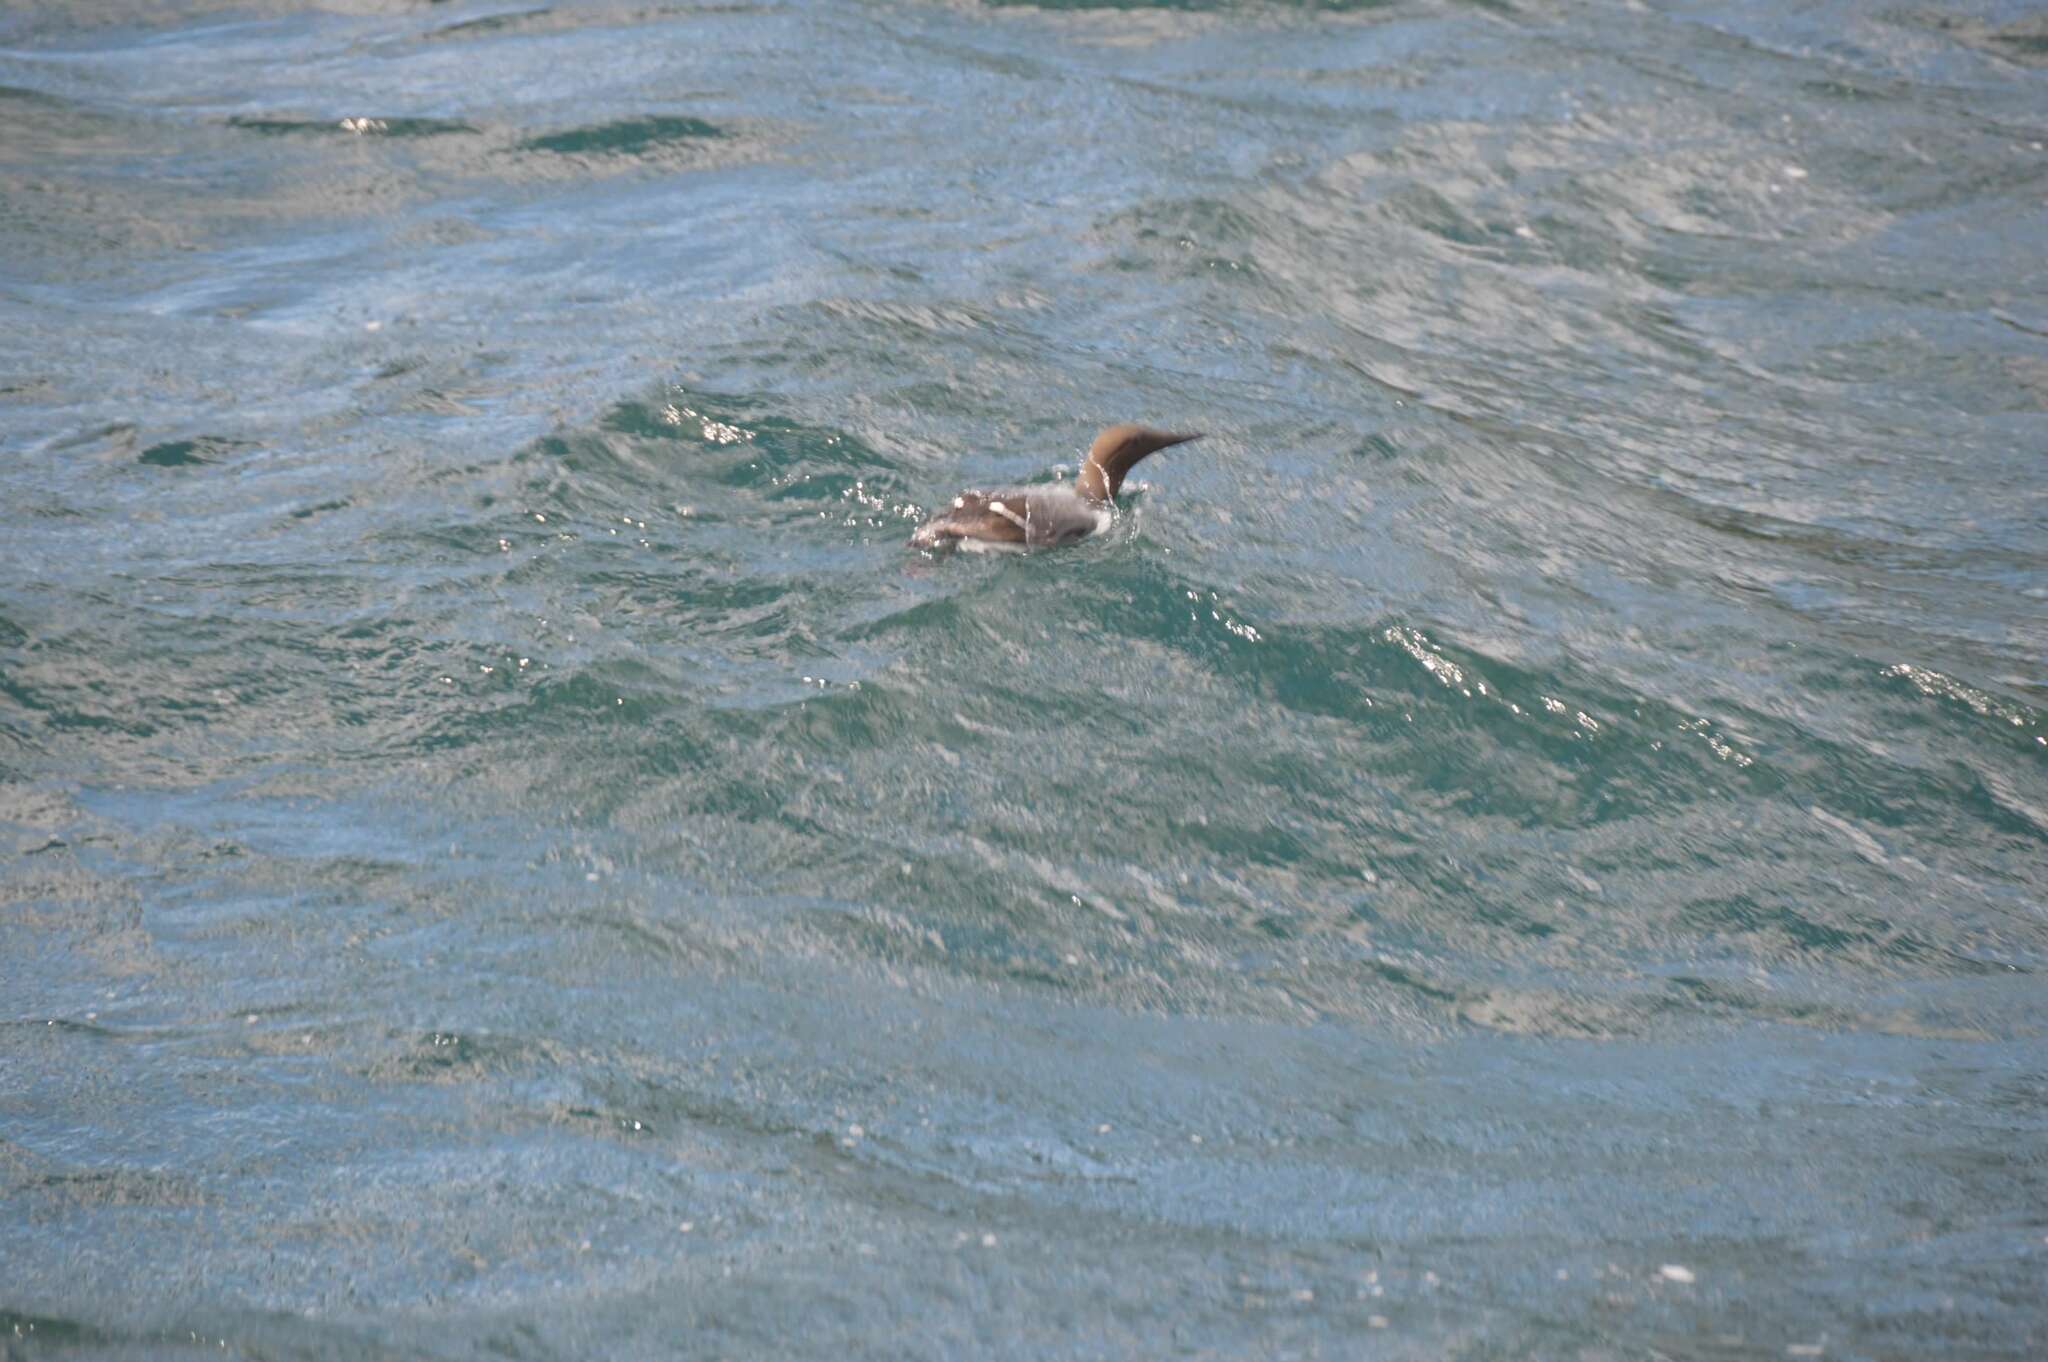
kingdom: Animalia
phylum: Chordata
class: Aves
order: Charadriiformes
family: Alcidae
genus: Uria
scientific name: Uria aalge
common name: Common murre
